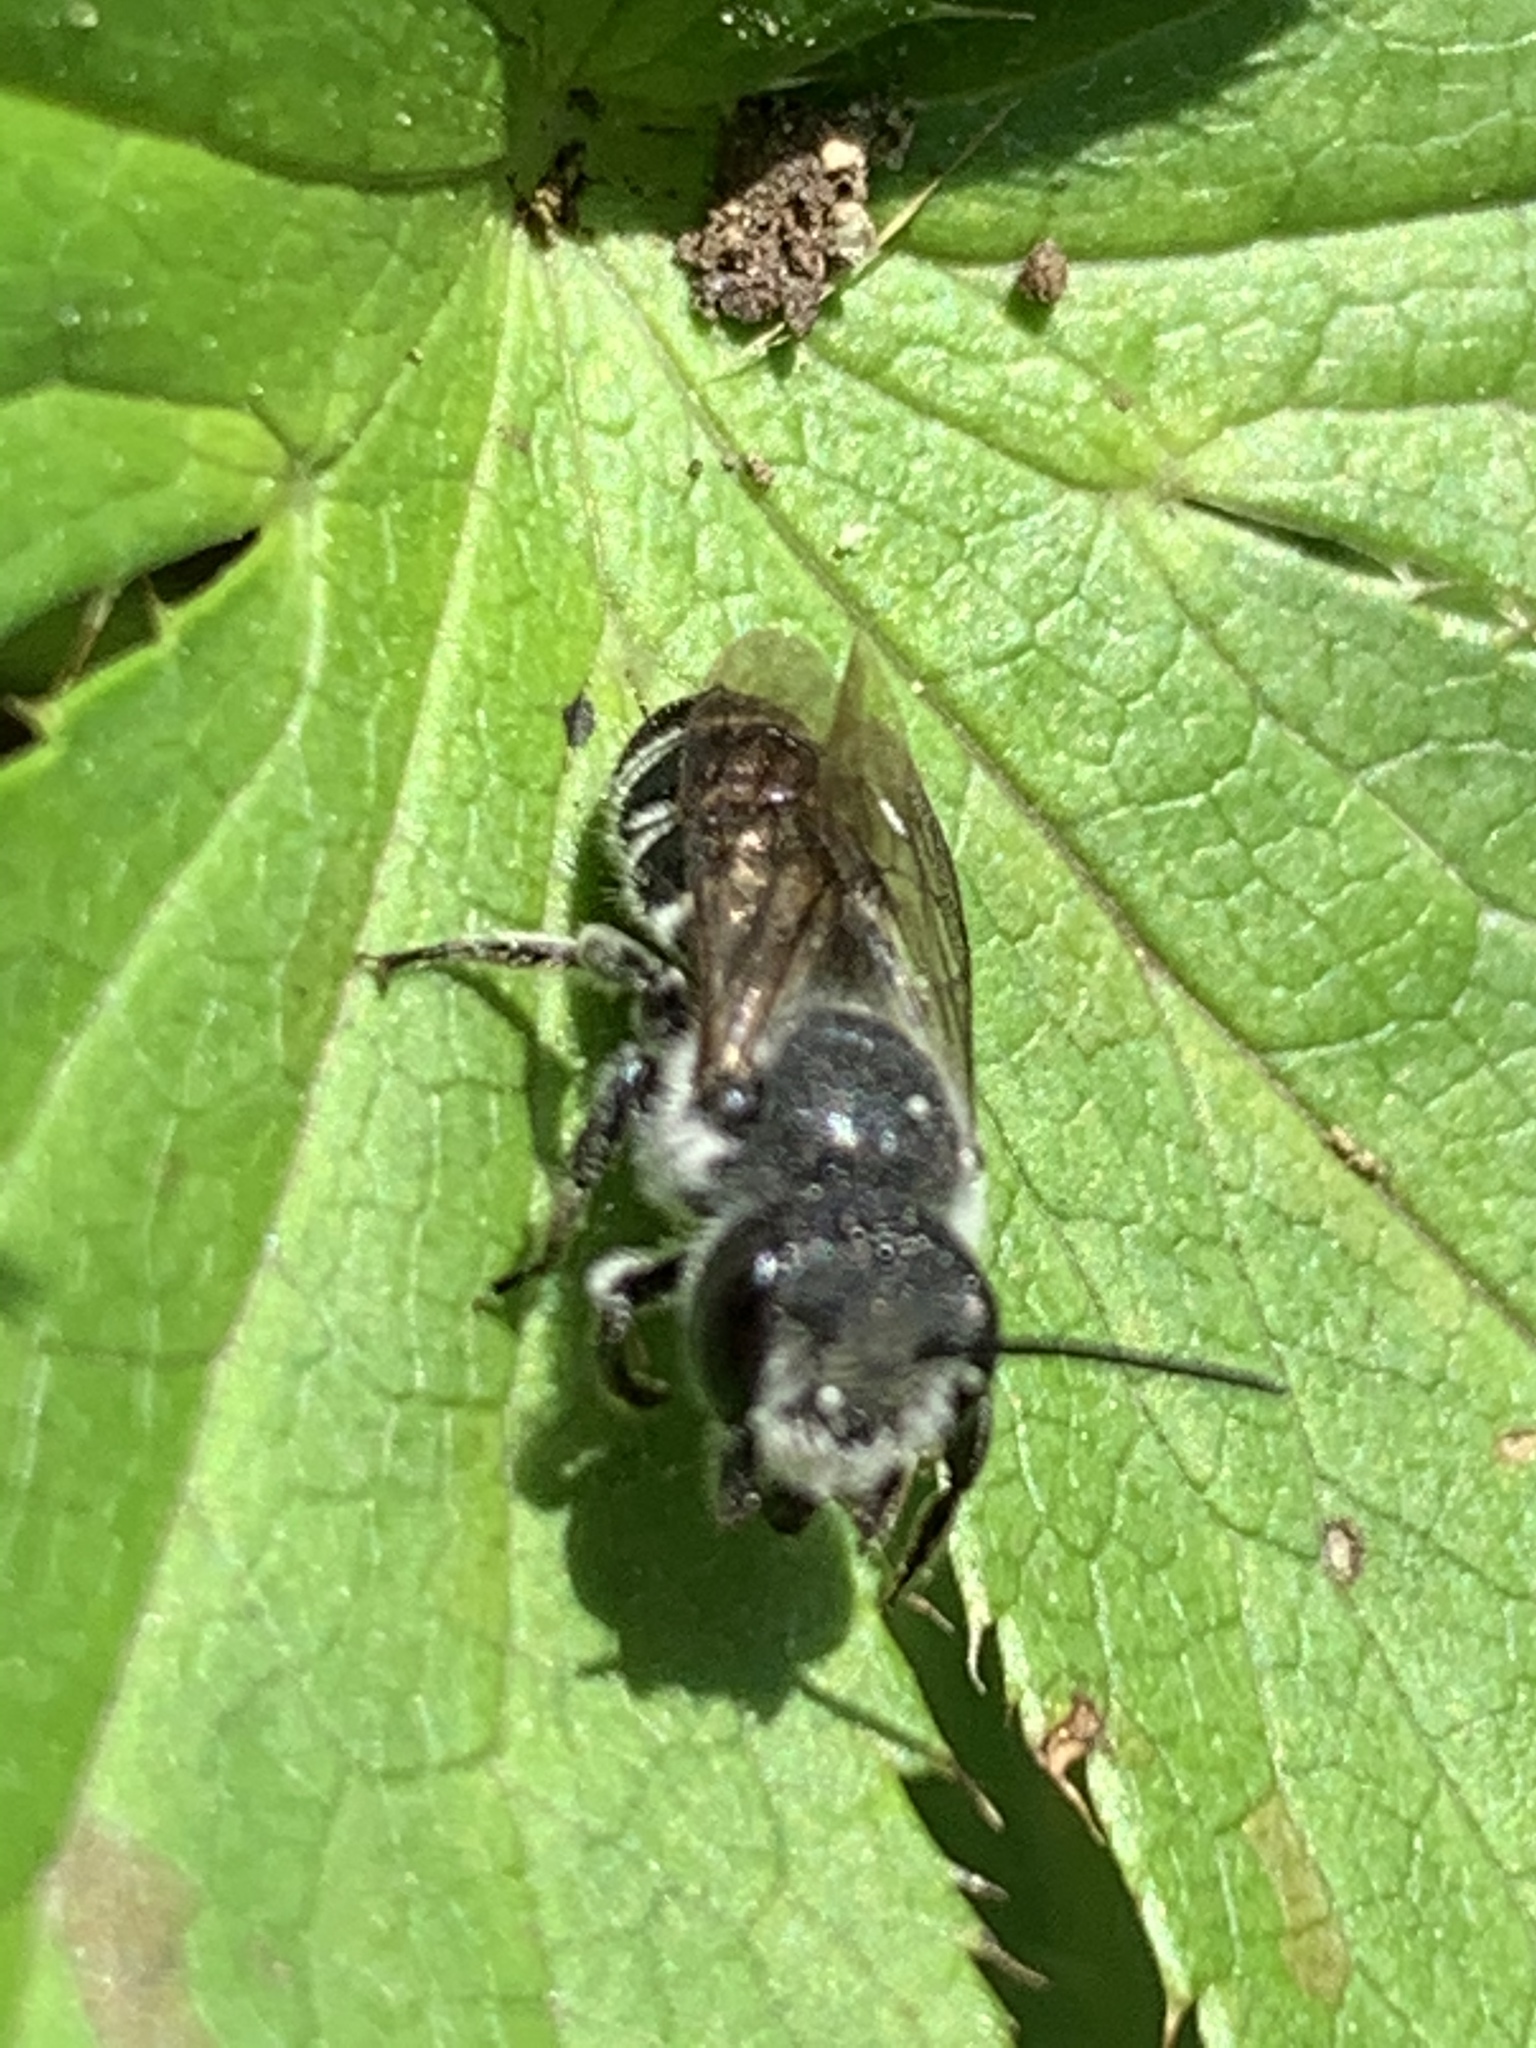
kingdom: Animalia
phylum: Arthropoda
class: Insecta
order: Hymenoptera
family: Megachilidae
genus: Megachile
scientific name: Megachile campanulae
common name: Bellflower resin bee
